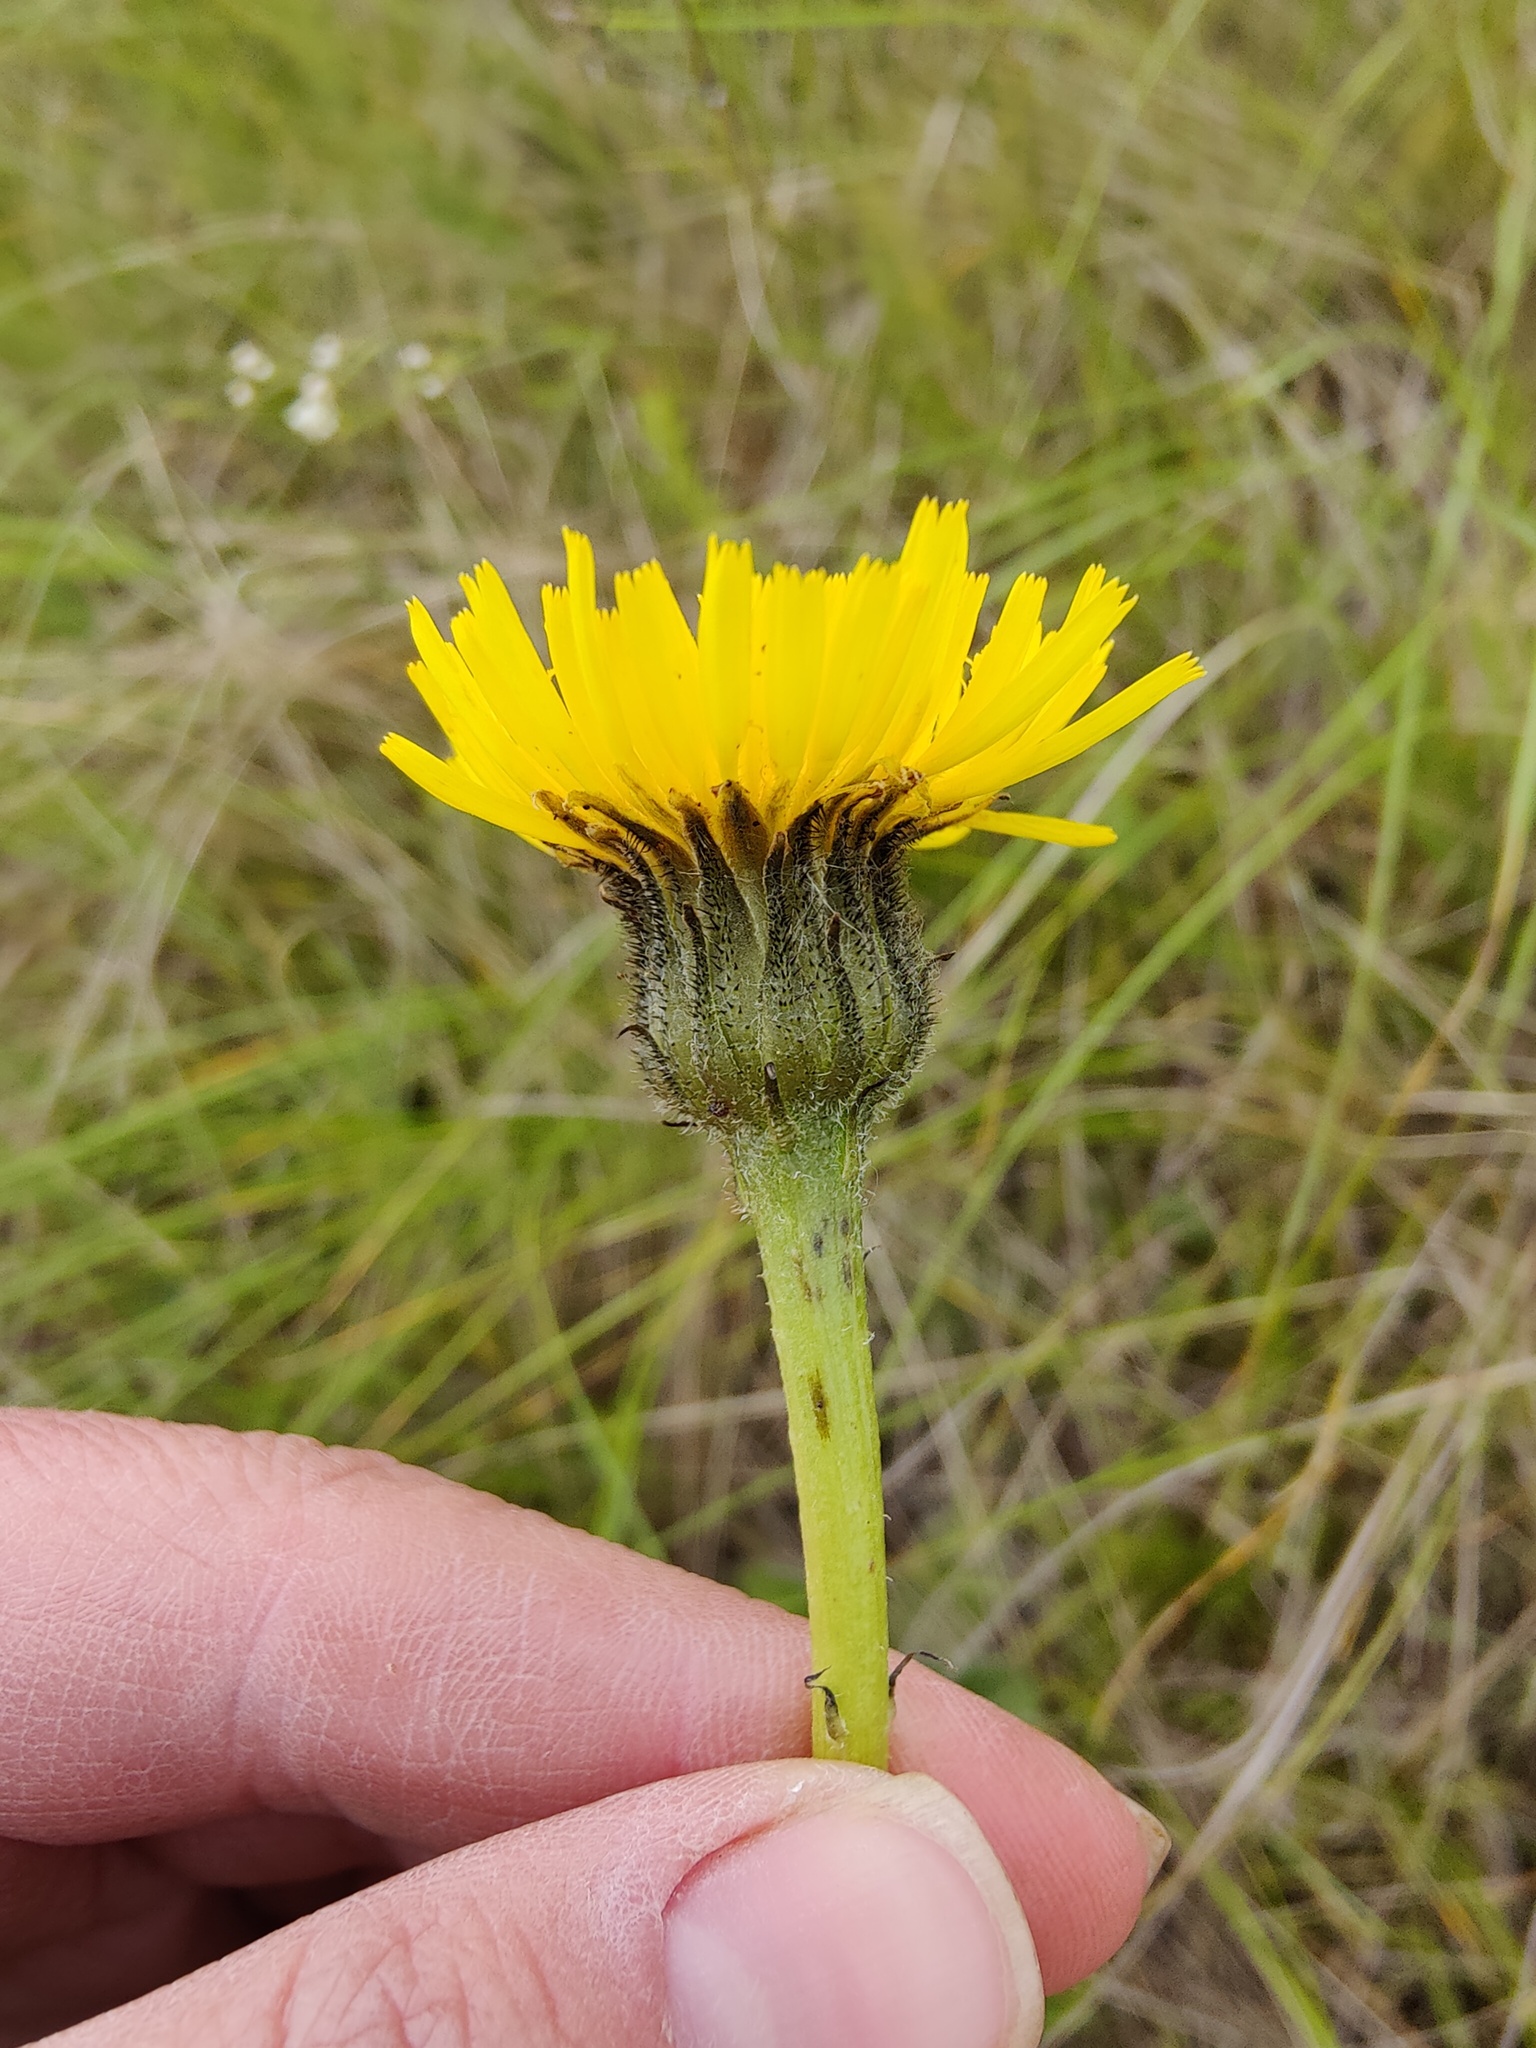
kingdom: Plantae
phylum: Tracheophyta
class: Magnoliopsida
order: Asterales
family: Asteraceae
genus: Trommsdorffia
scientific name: Trommsdorffia maculata
